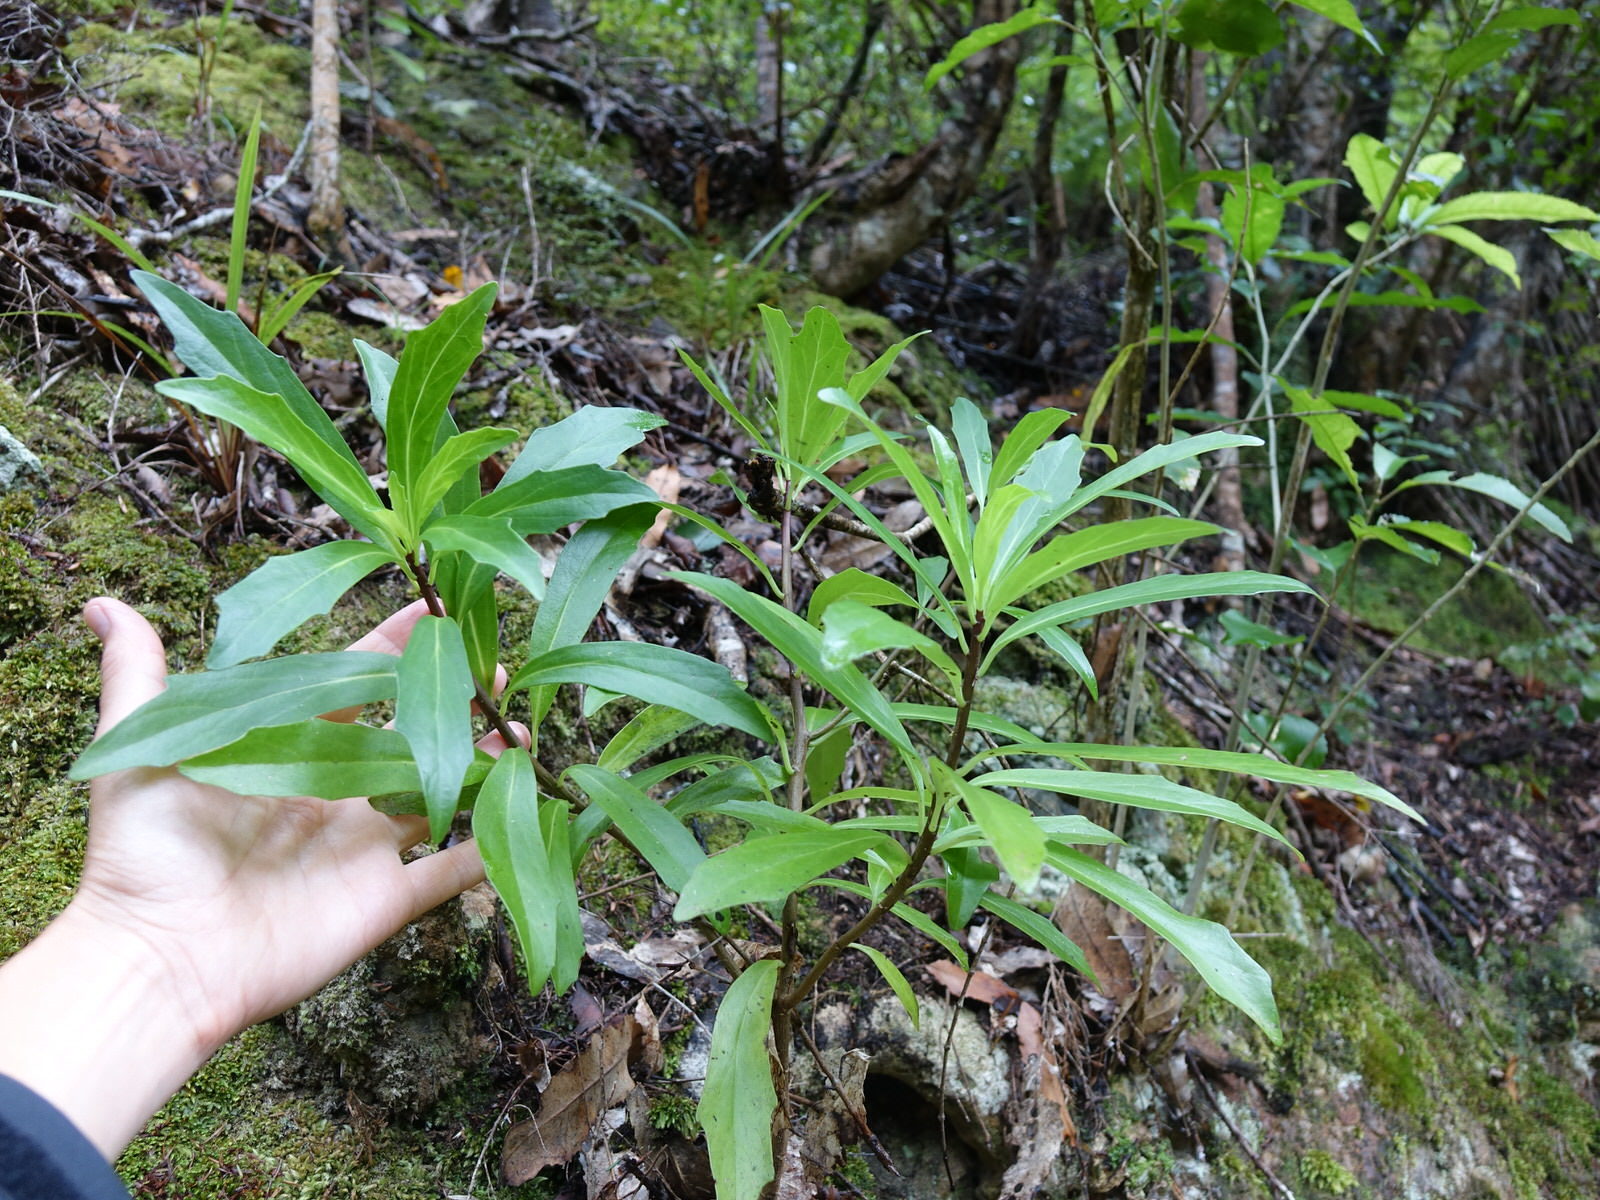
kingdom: Plantae
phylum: Tracheophyta
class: Magnoliopsida
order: Asterales
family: Asteraceae
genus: Brachyglottis
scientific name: Brachyglottis kirkii
